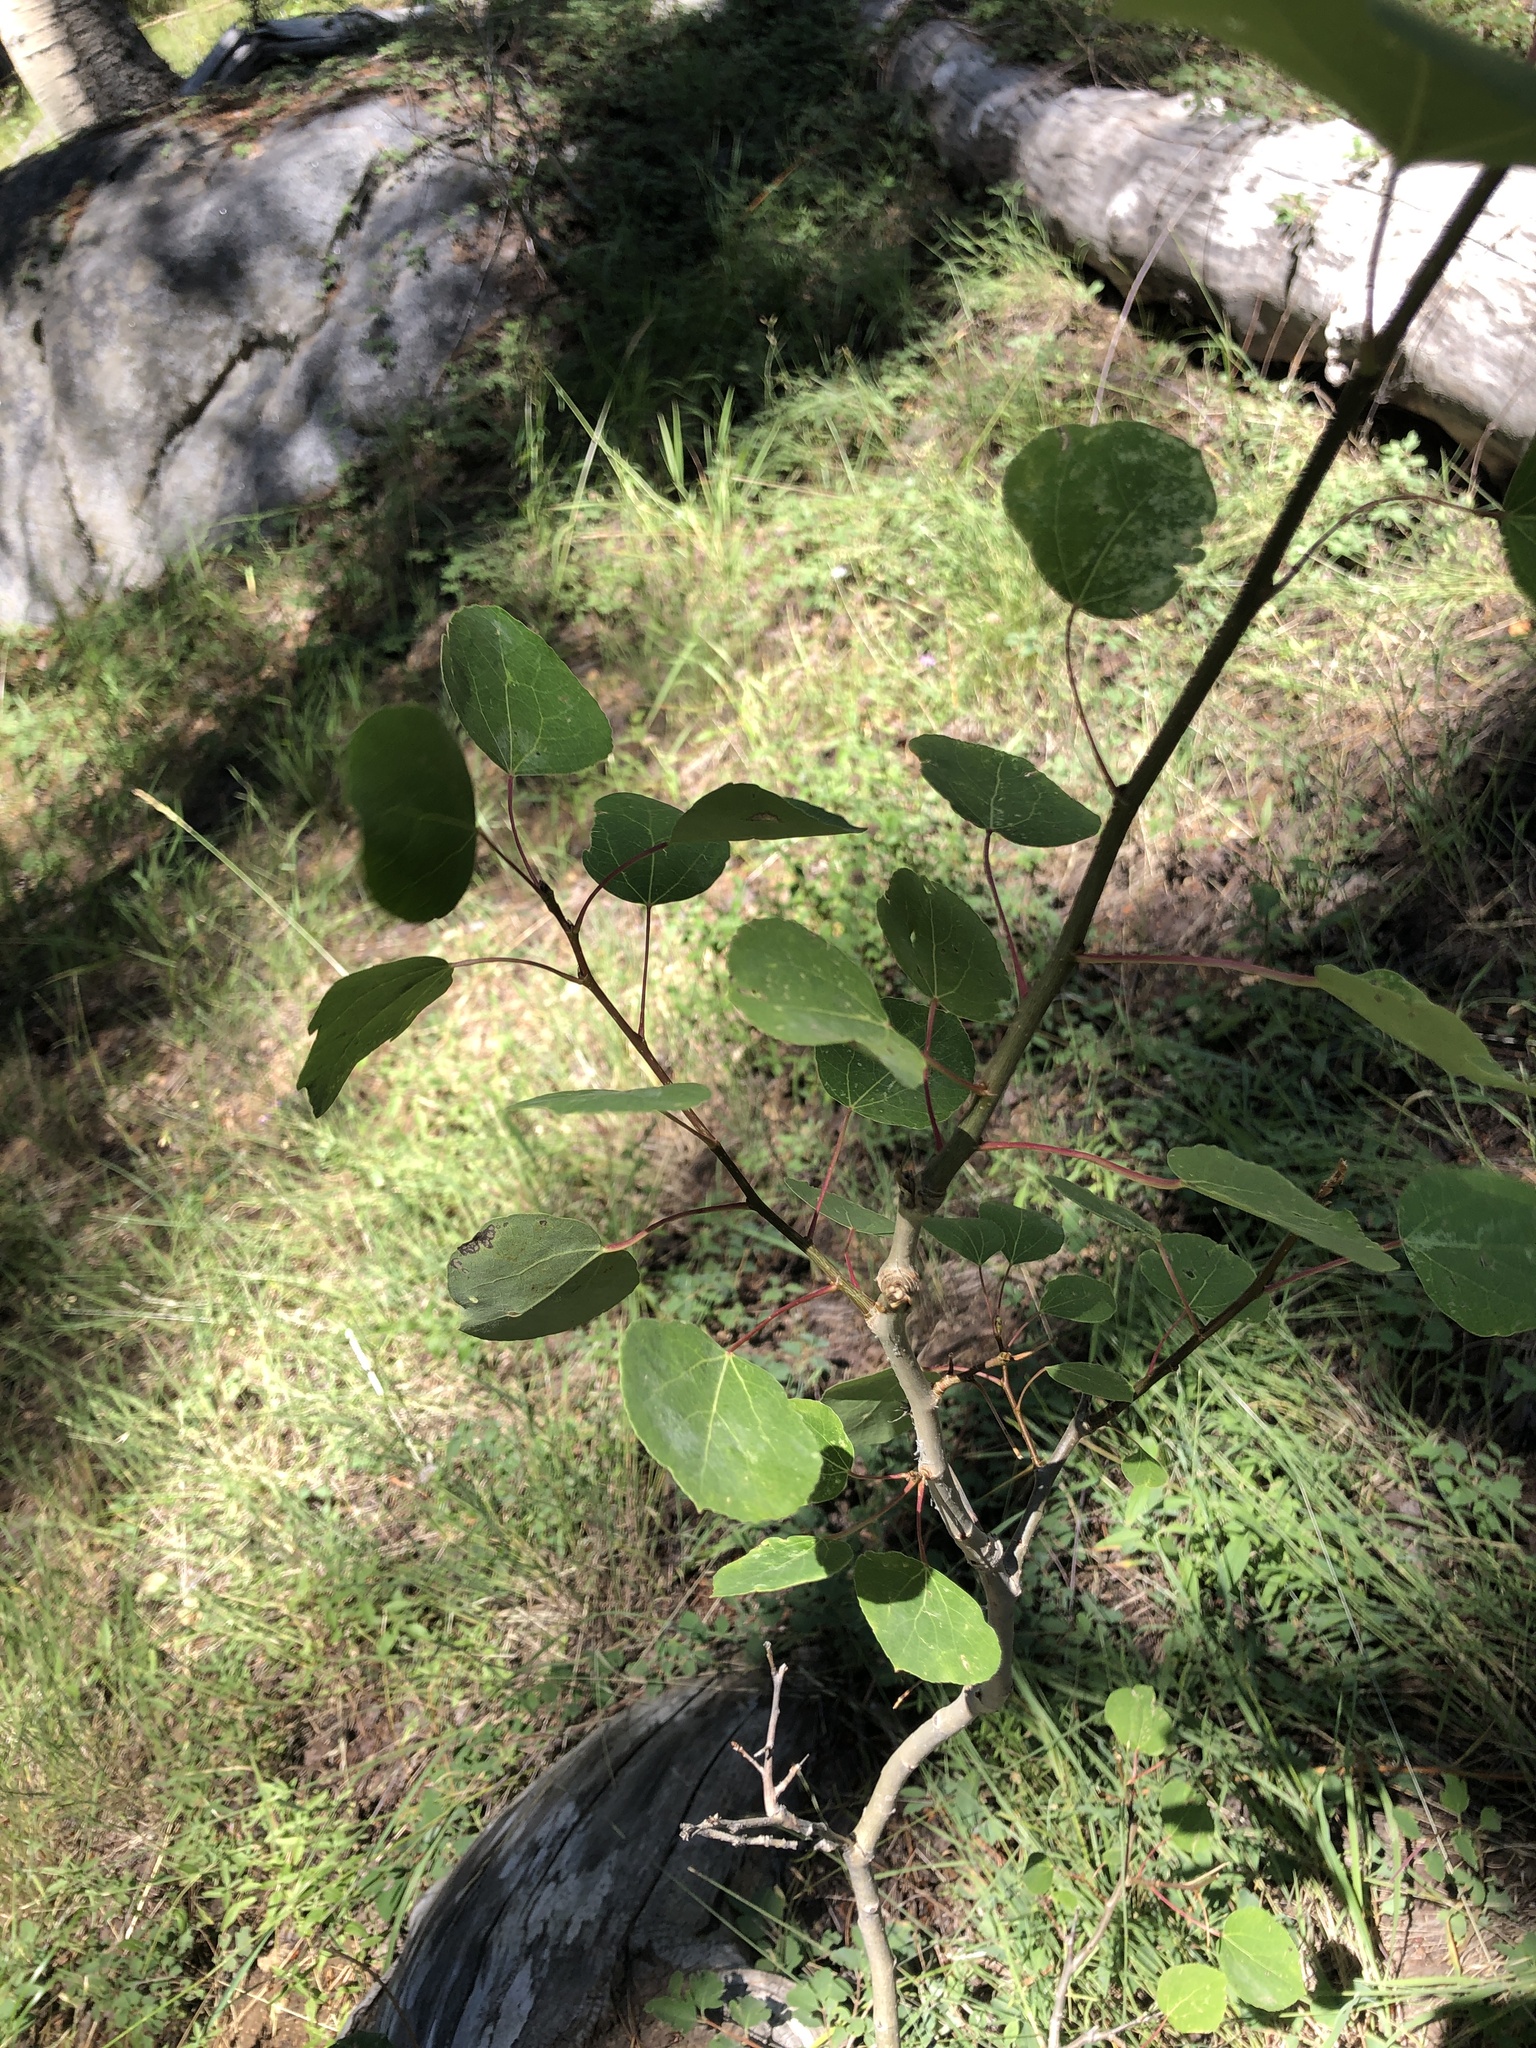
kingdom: Plantae
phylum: Tracheophyta
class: Magnoliopsida
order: Malpighiales
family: Salicaceae
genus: Populus
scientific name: Populus tremuloides
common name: Quaking aspen
